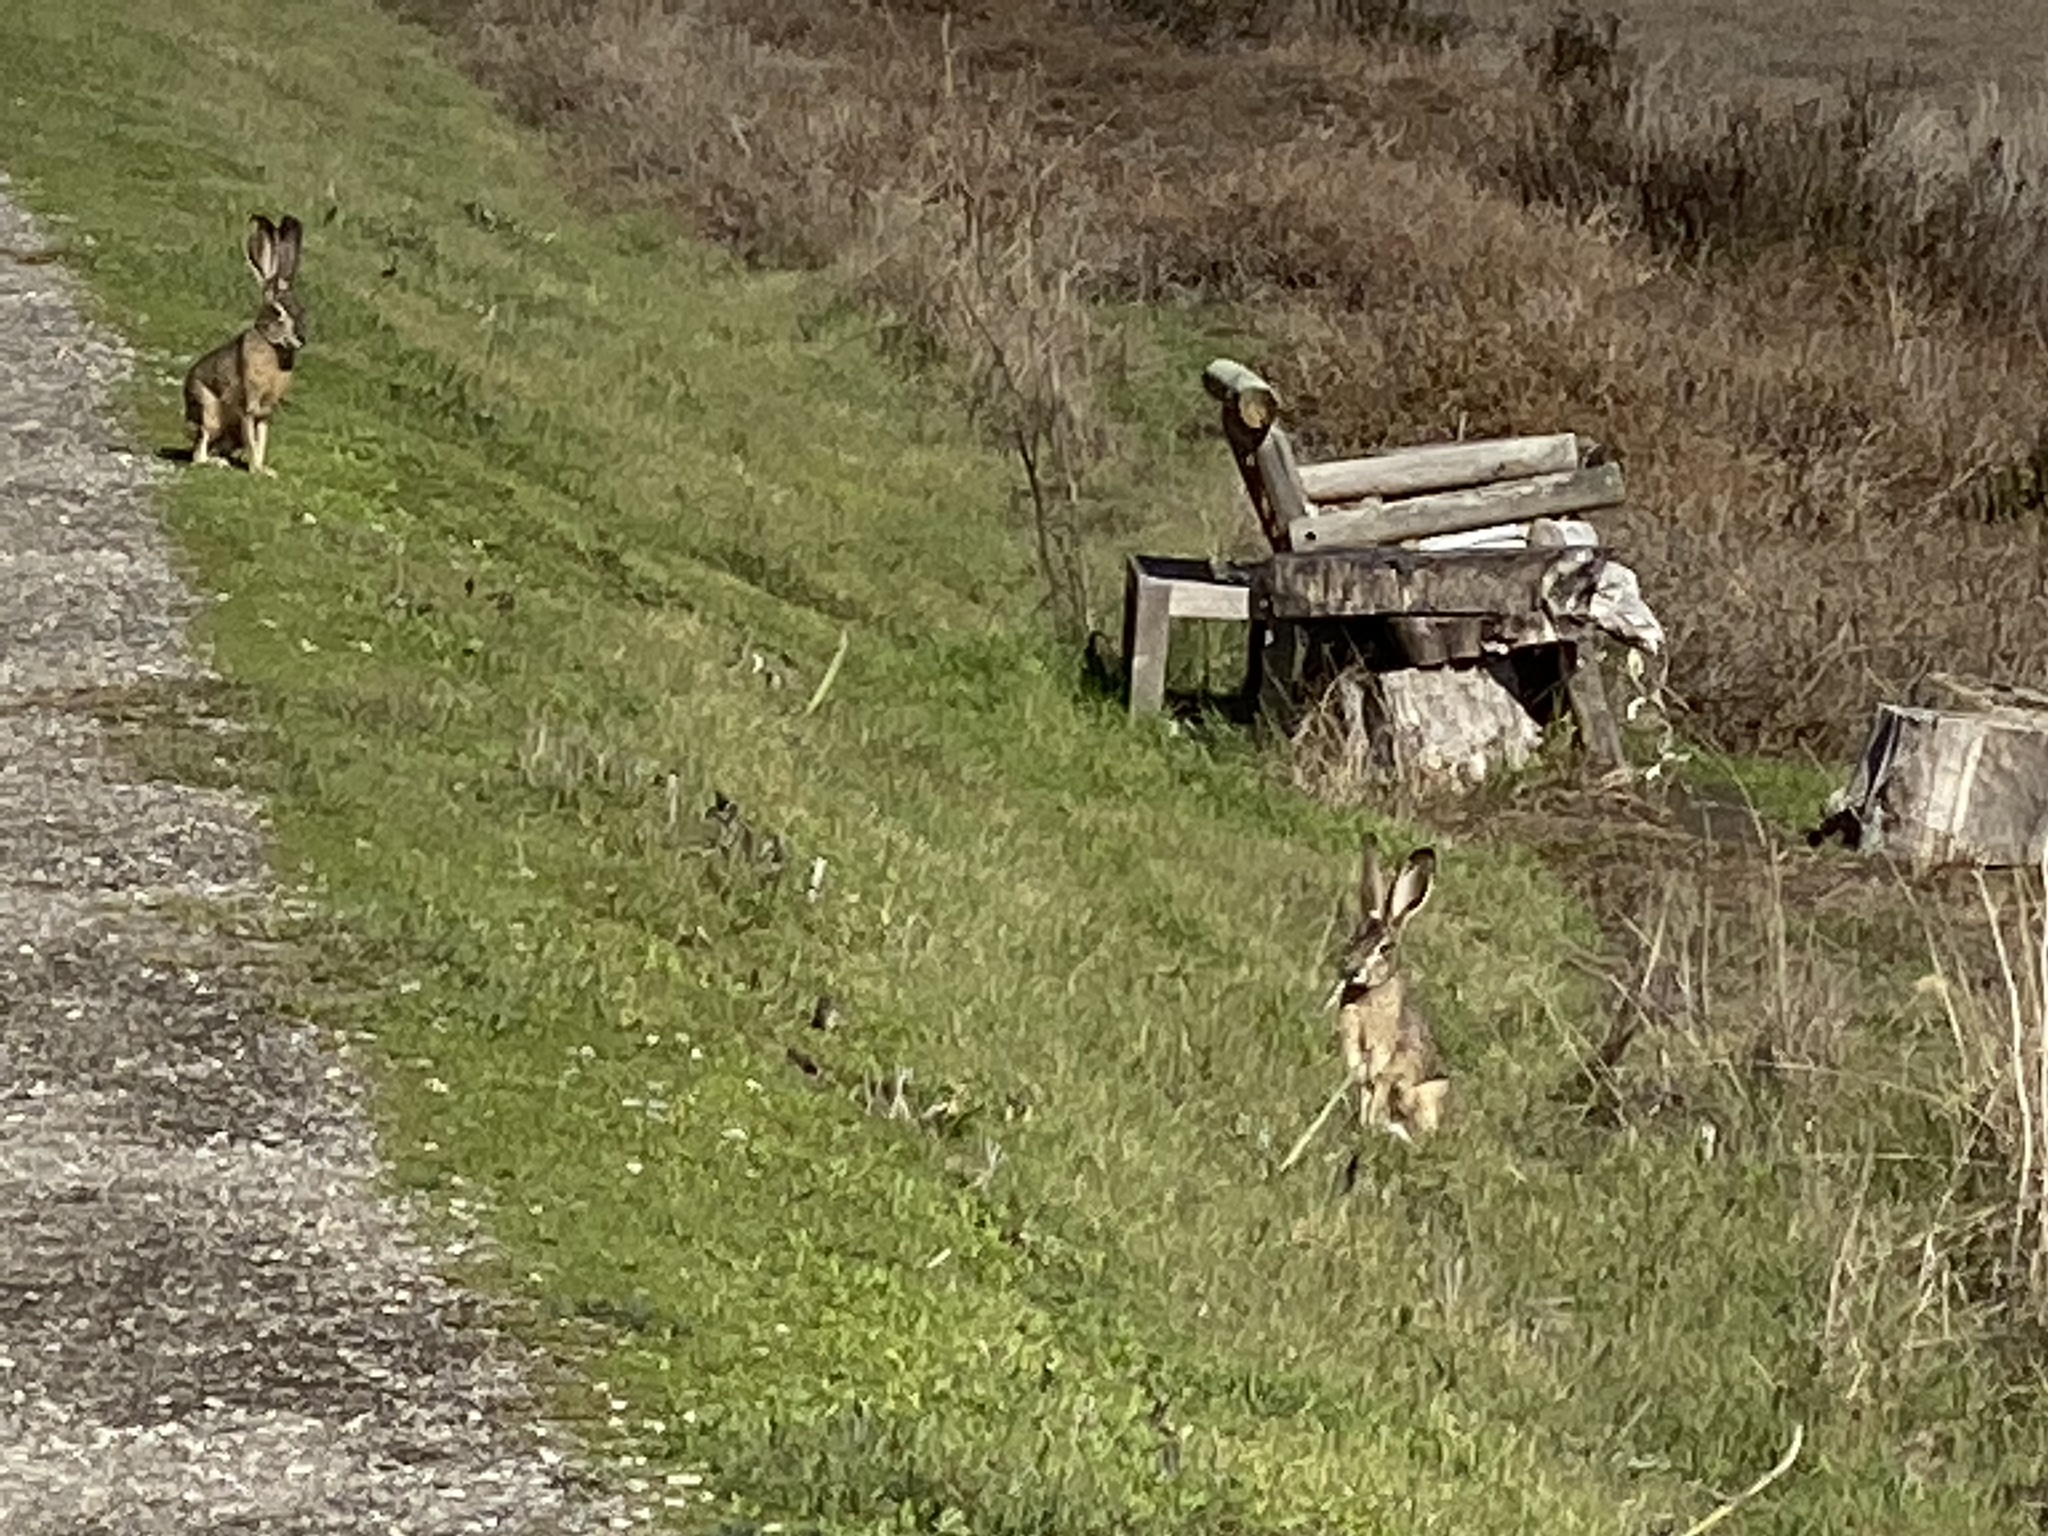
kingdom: Animalia
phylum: Chordata
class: Mammalia
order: Lagomorpha
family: Leporidae
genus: Lepus
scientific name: Lepus californicus
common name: Black-tailed jackrabbit
